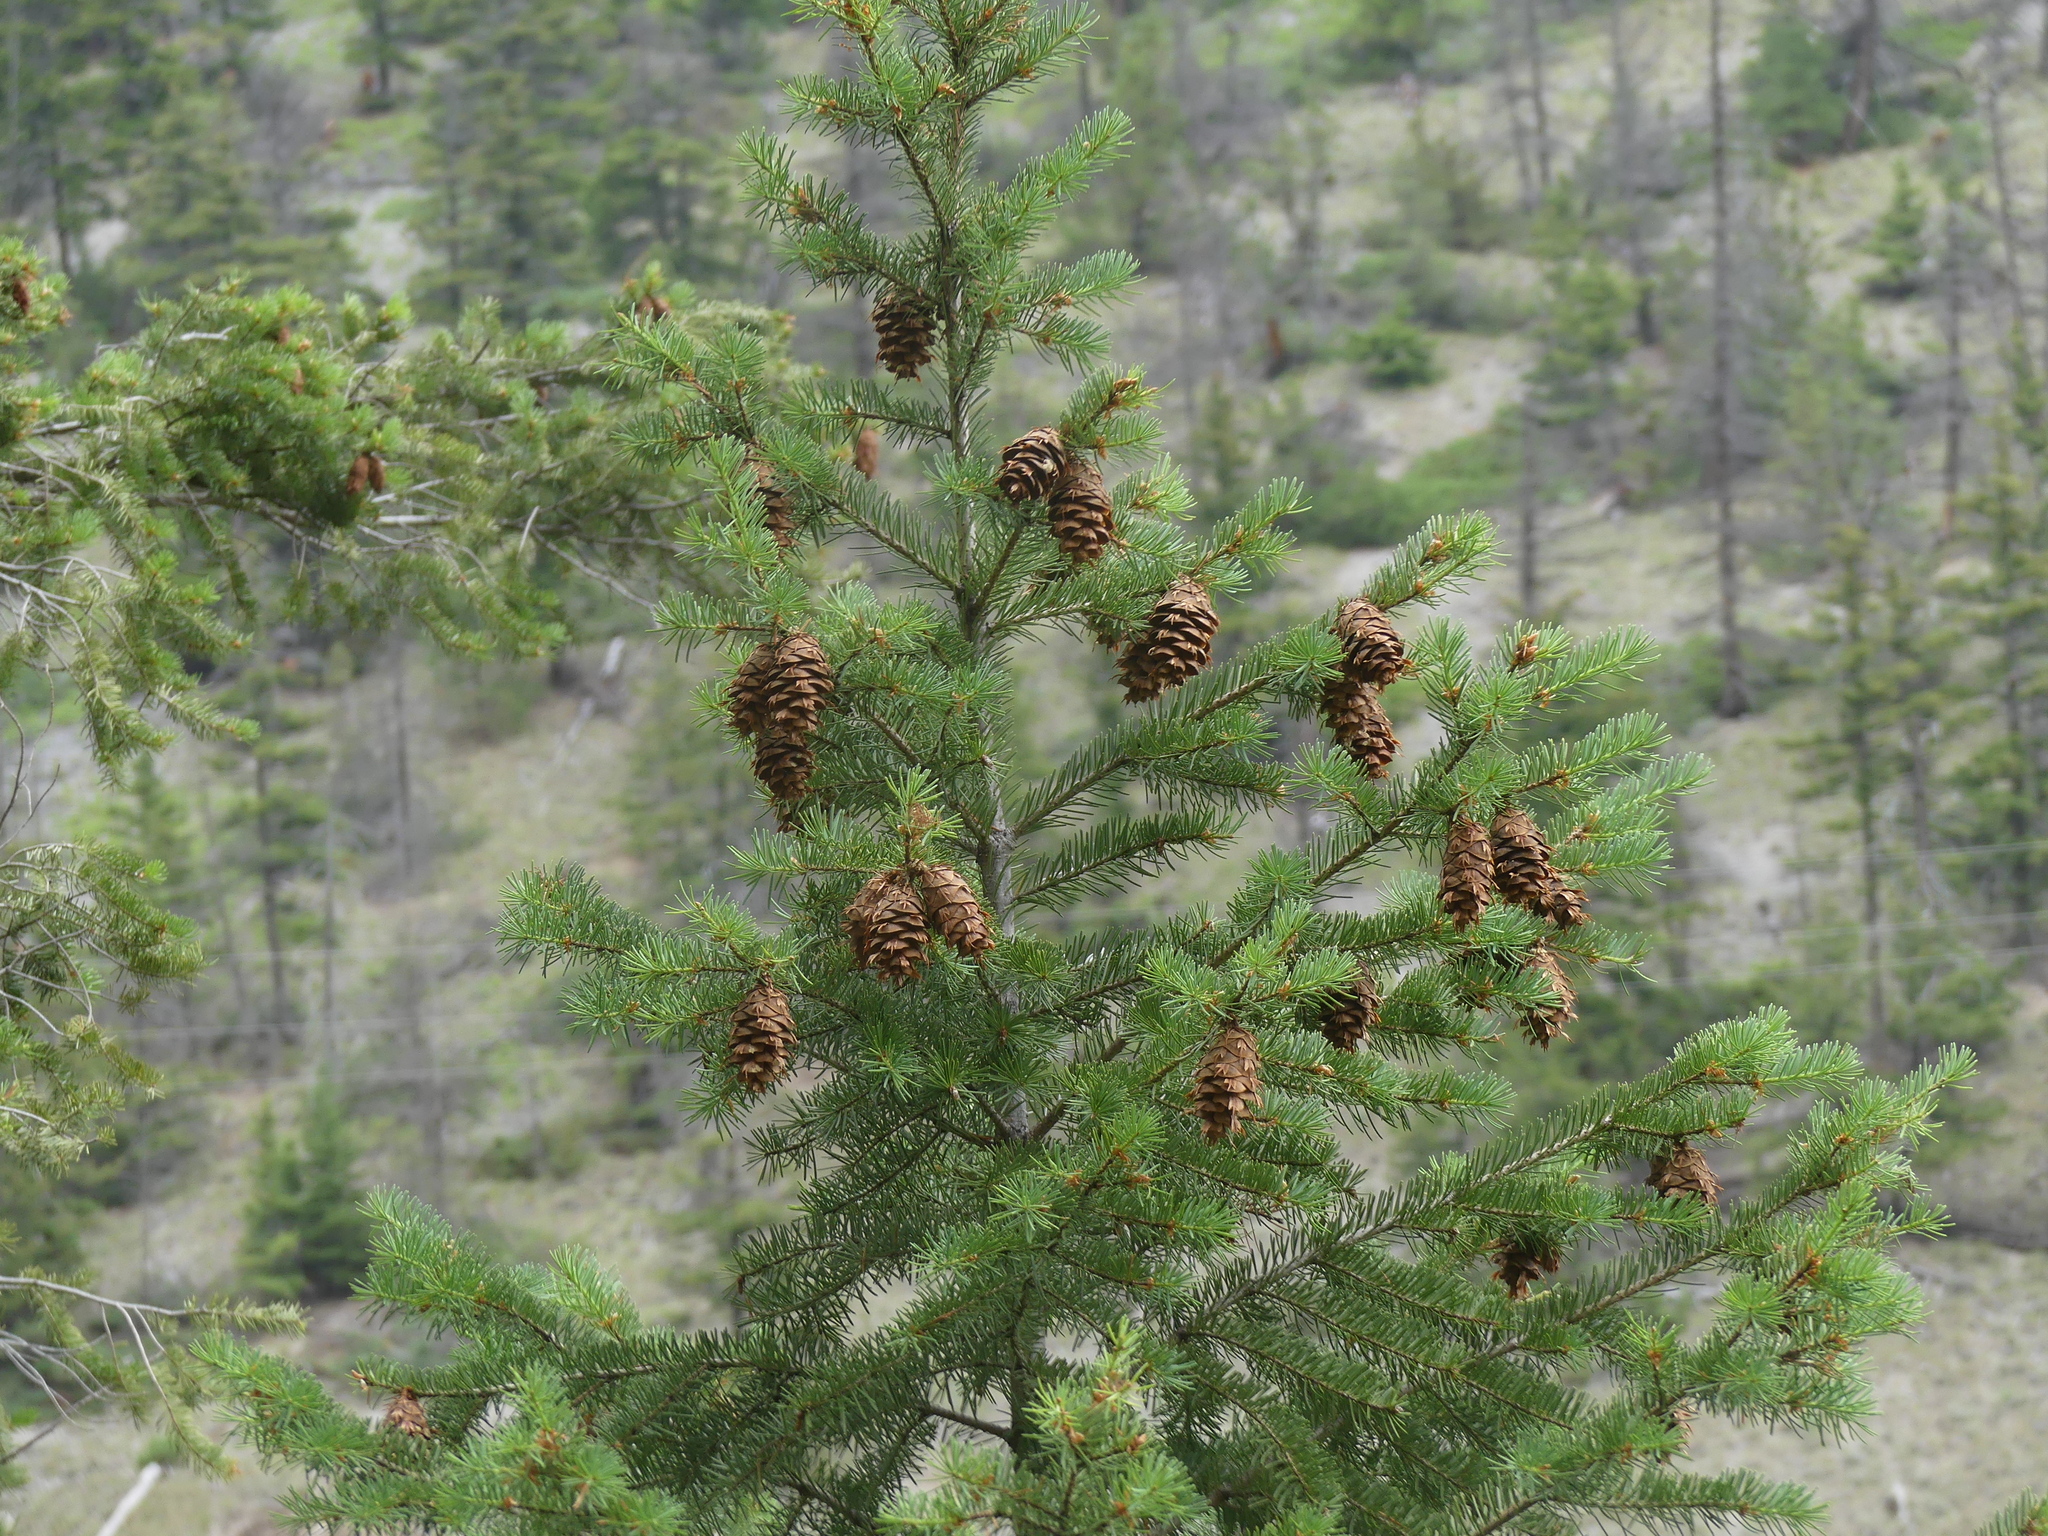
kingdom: Plantae
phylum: Tracheophyta
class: Pinopsida
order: Pinales
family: Pinaceae
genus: Pseudotsuga
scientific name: Pseudotsuga menziesii
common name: Douglas fir
